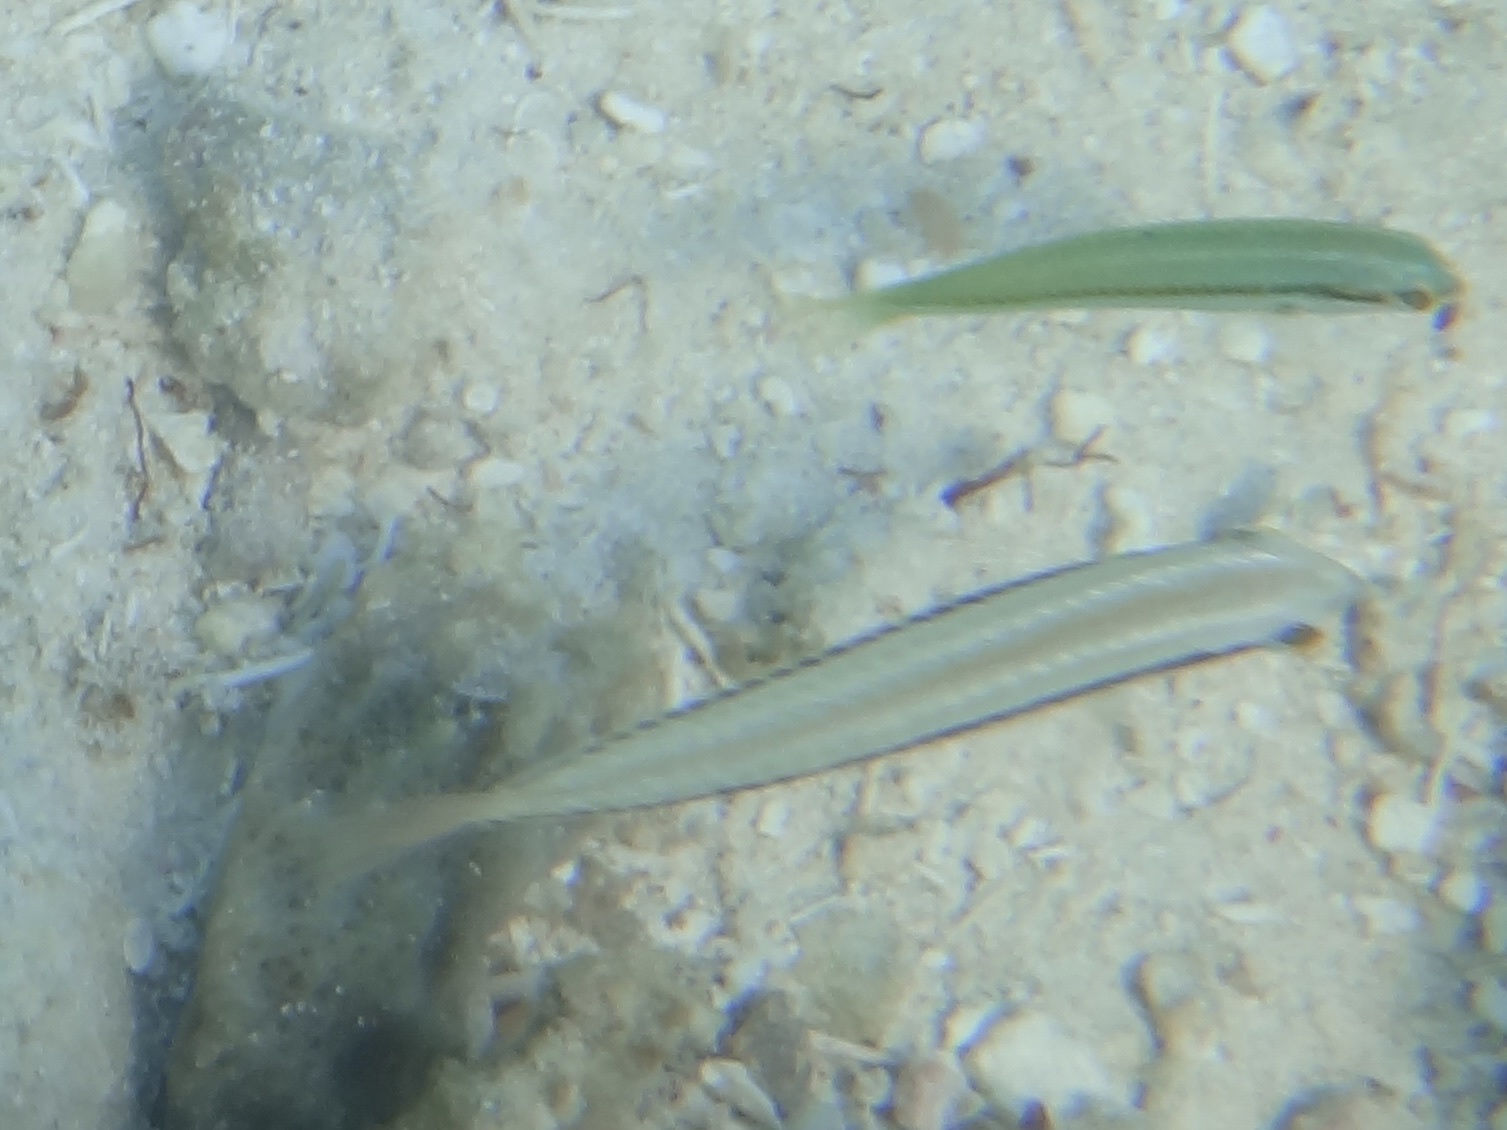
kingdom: Animalia
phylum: Chordata
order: Perciformes
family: Labridae
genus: Halichoeres
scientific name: Halichoeres bivittatus
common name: Slippery dick
